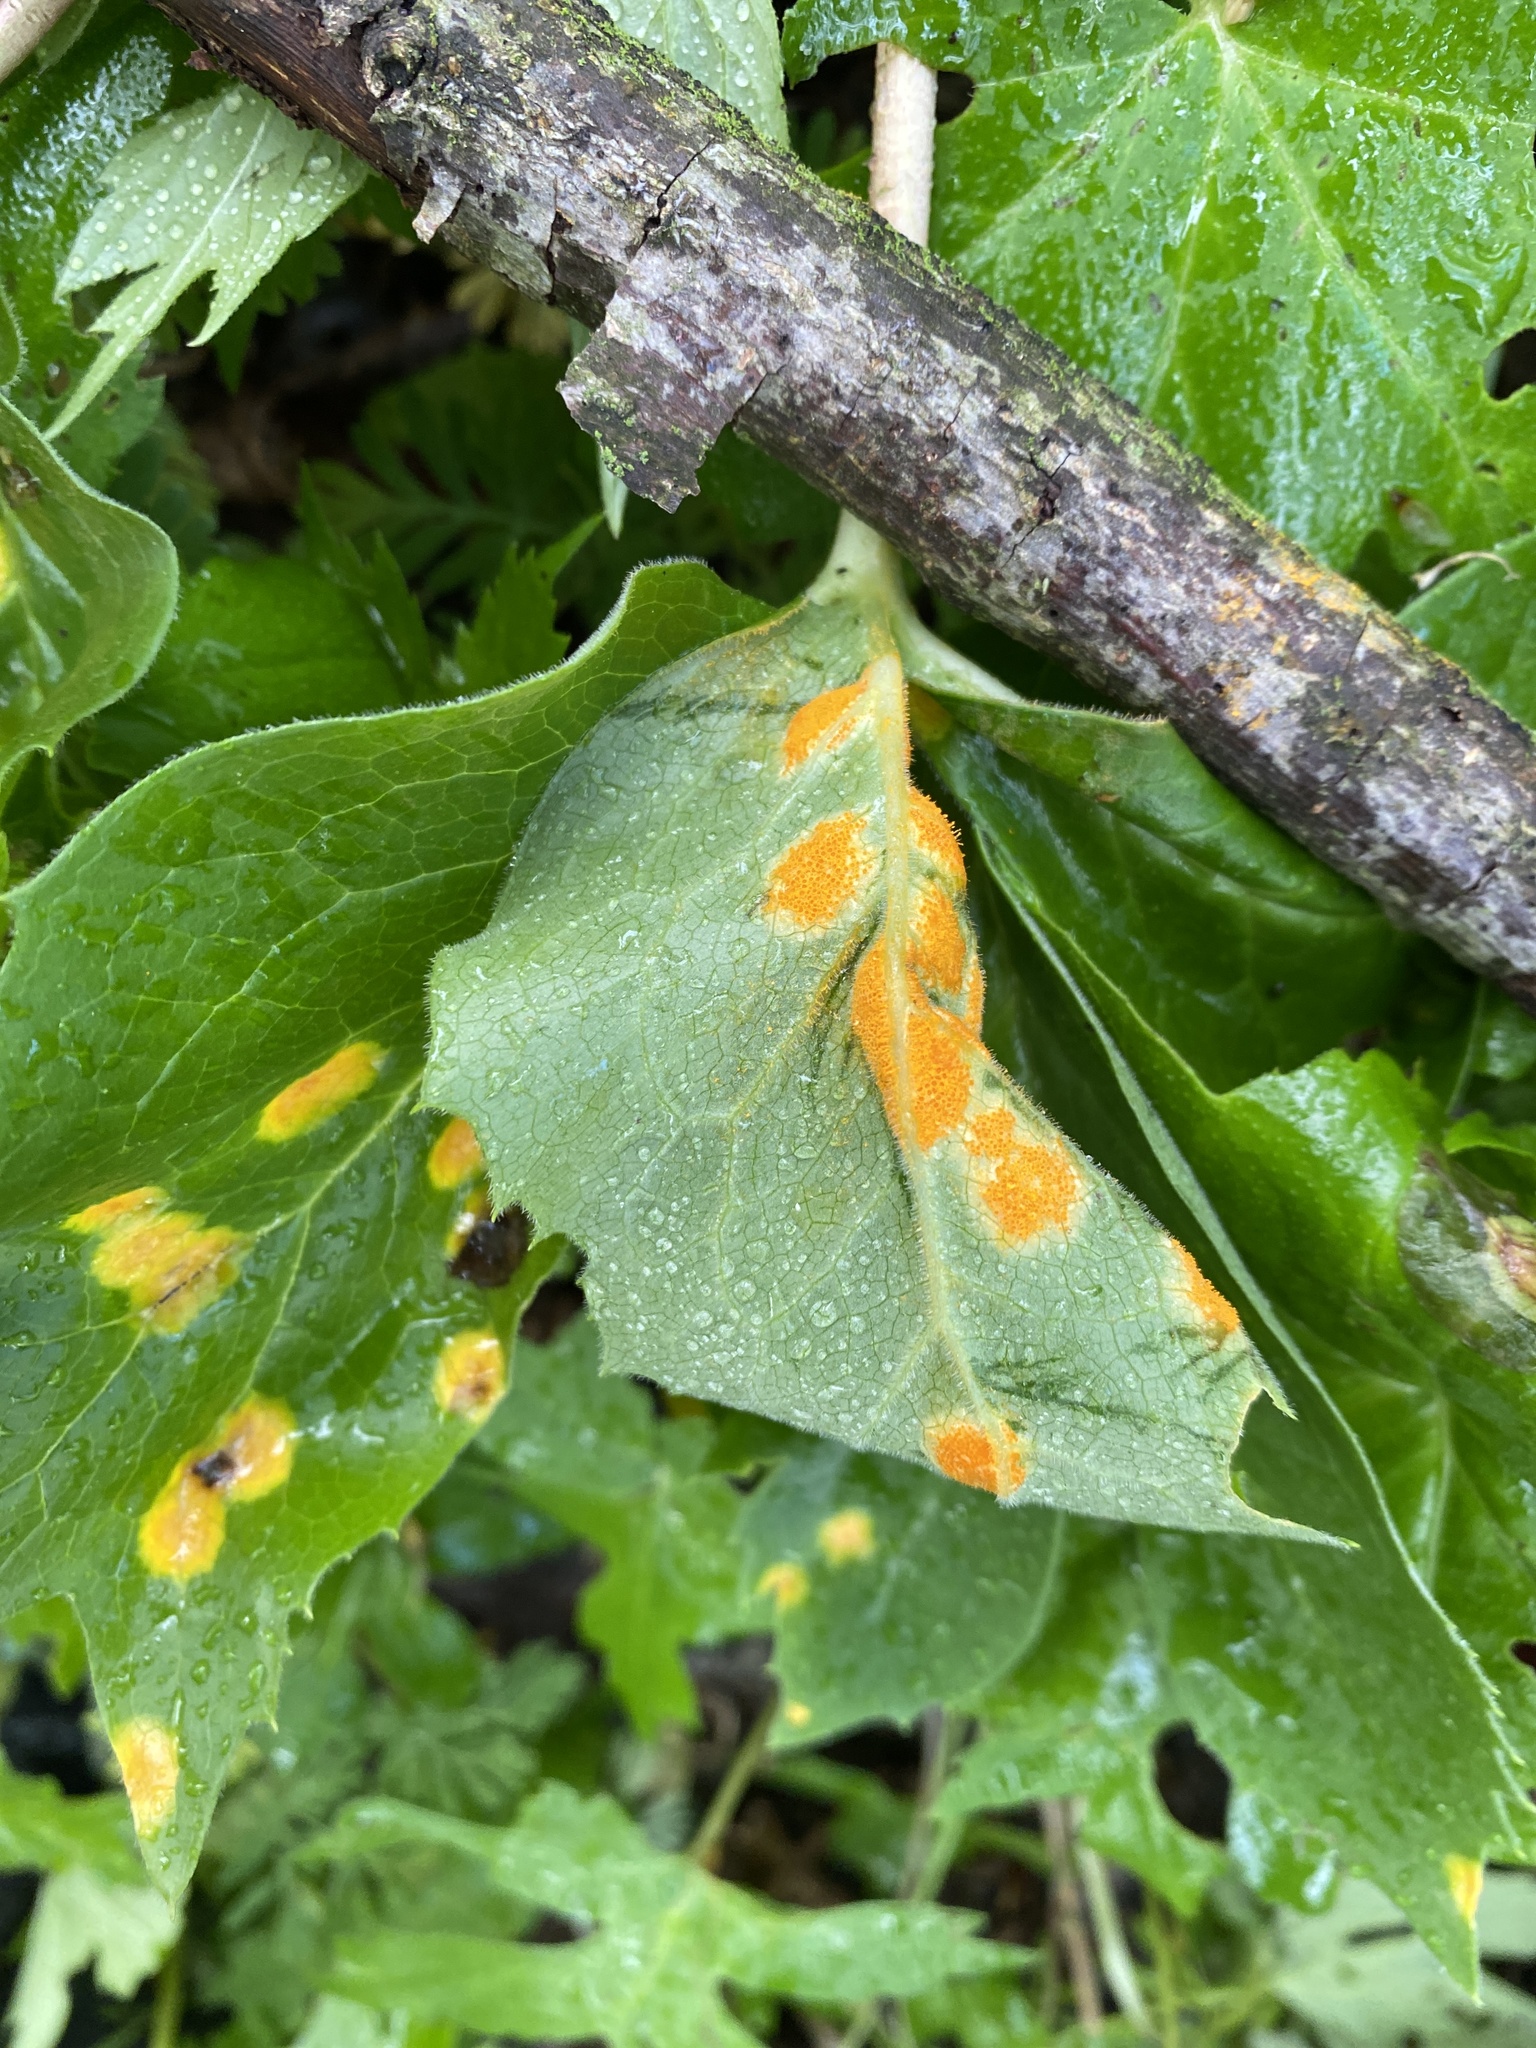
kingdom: Fungi
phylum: Basidiomycota
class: Pucciniomycetes
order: Pucciniales
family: Pucciniaceae
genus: Puccinia
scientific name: Puccinia podophylli
